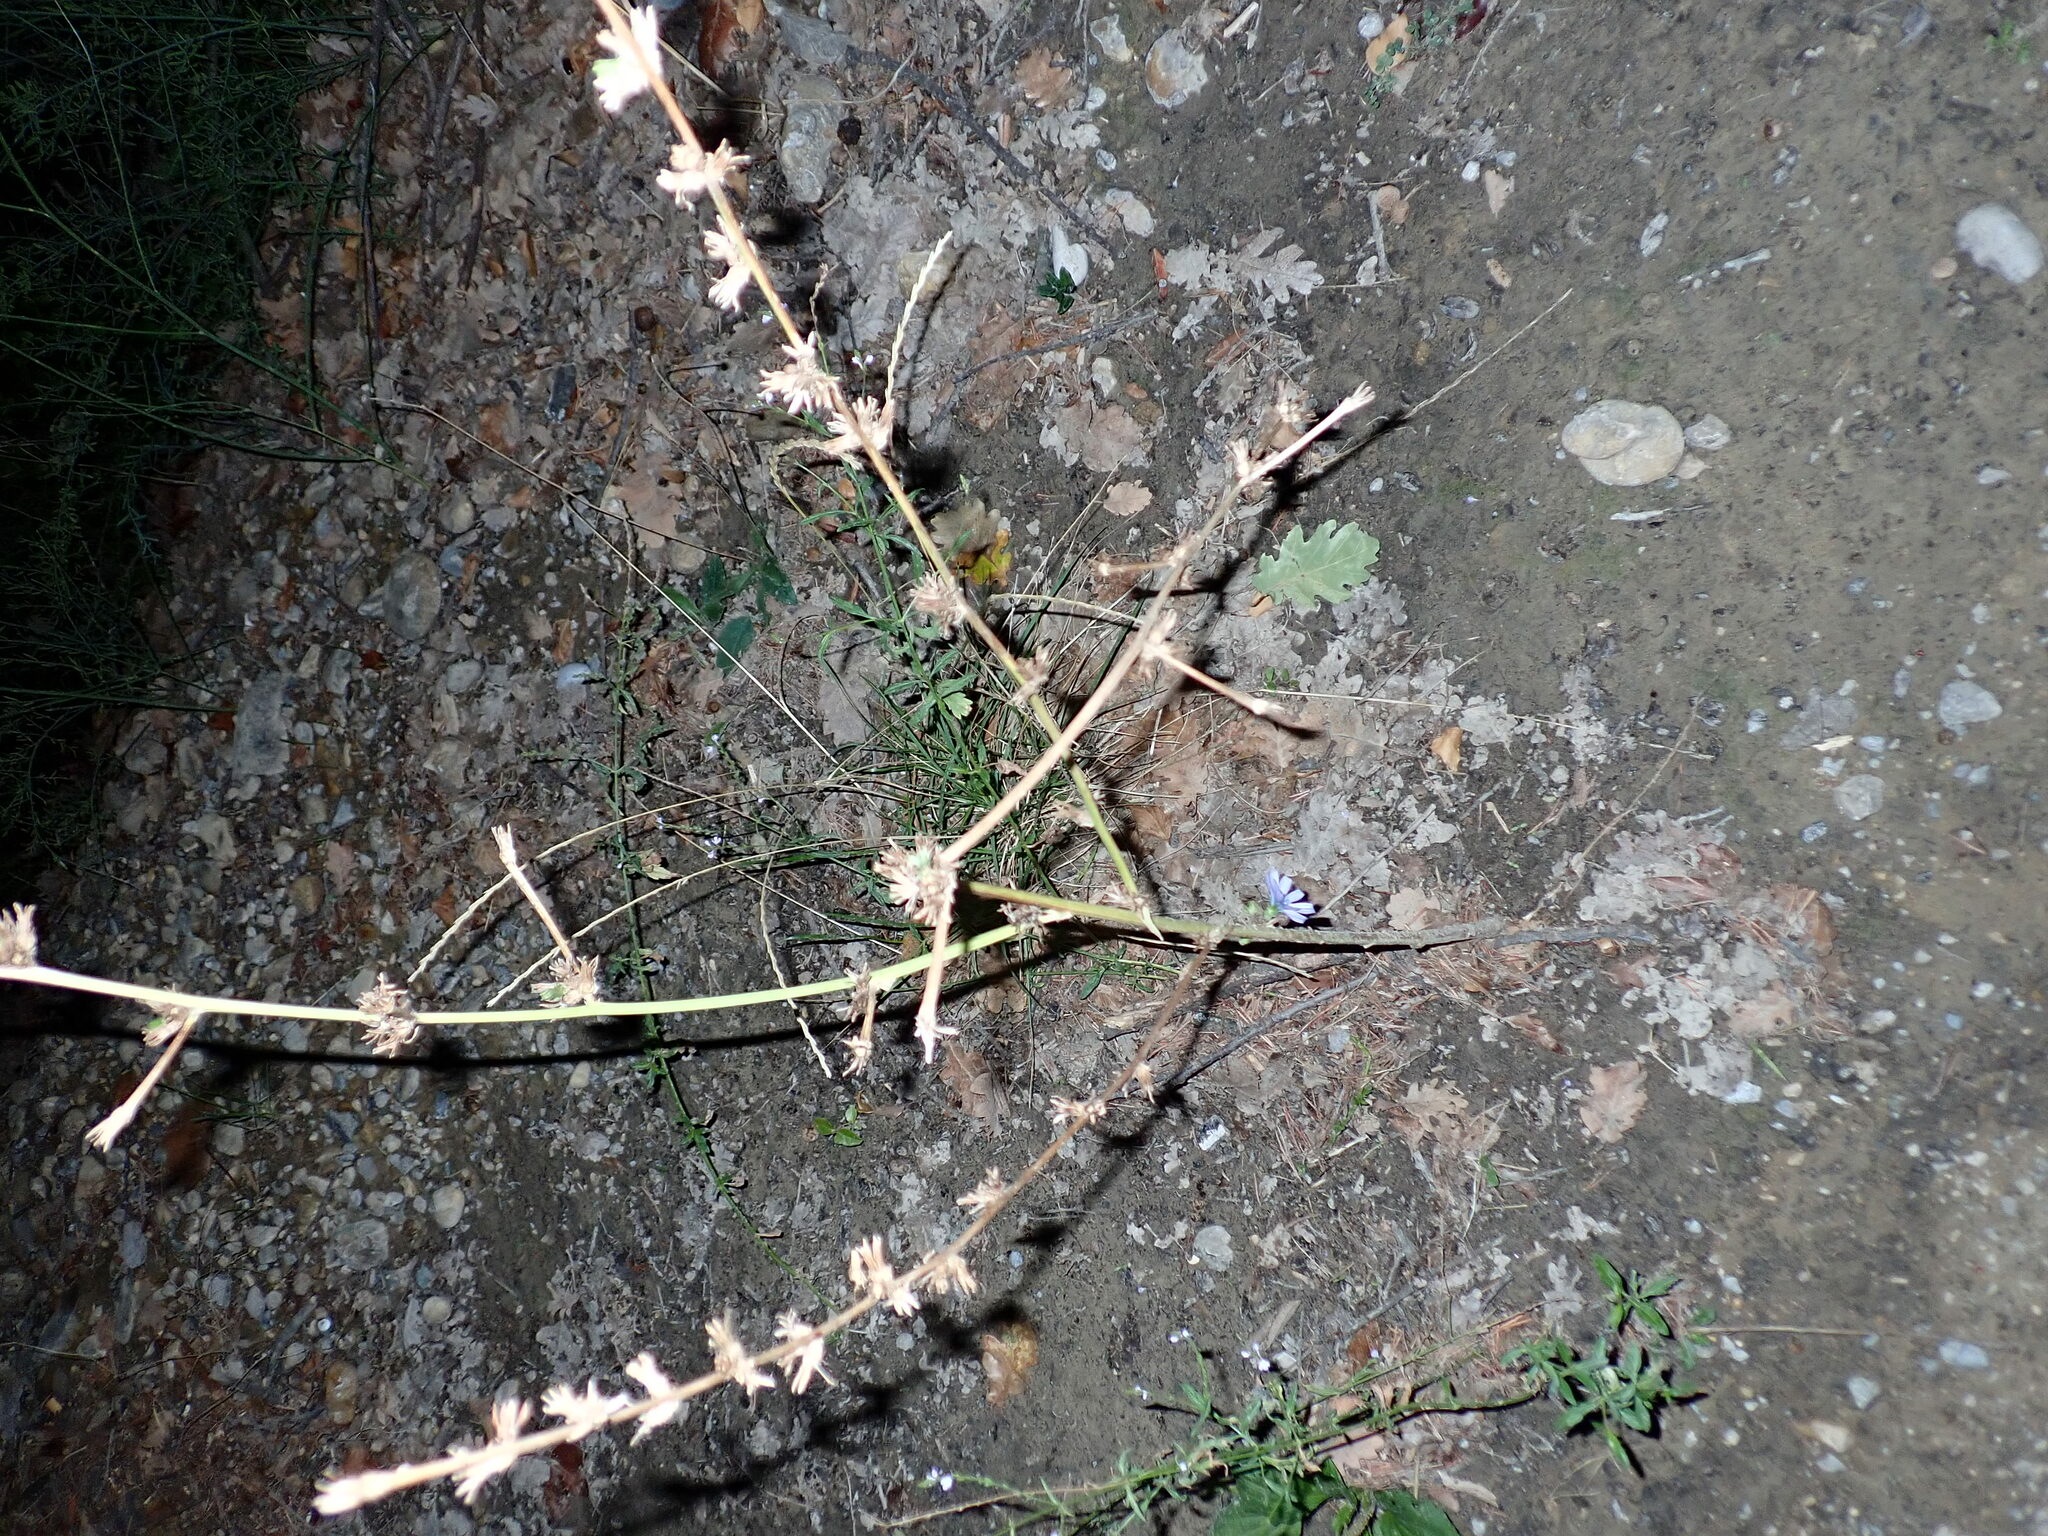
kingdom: Plantae
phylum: Tracheophyta
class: Magnoliopsida
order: Asterales
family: Asteraceae
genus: Cichorium
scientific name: Cichorium intybus
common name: Chicory
